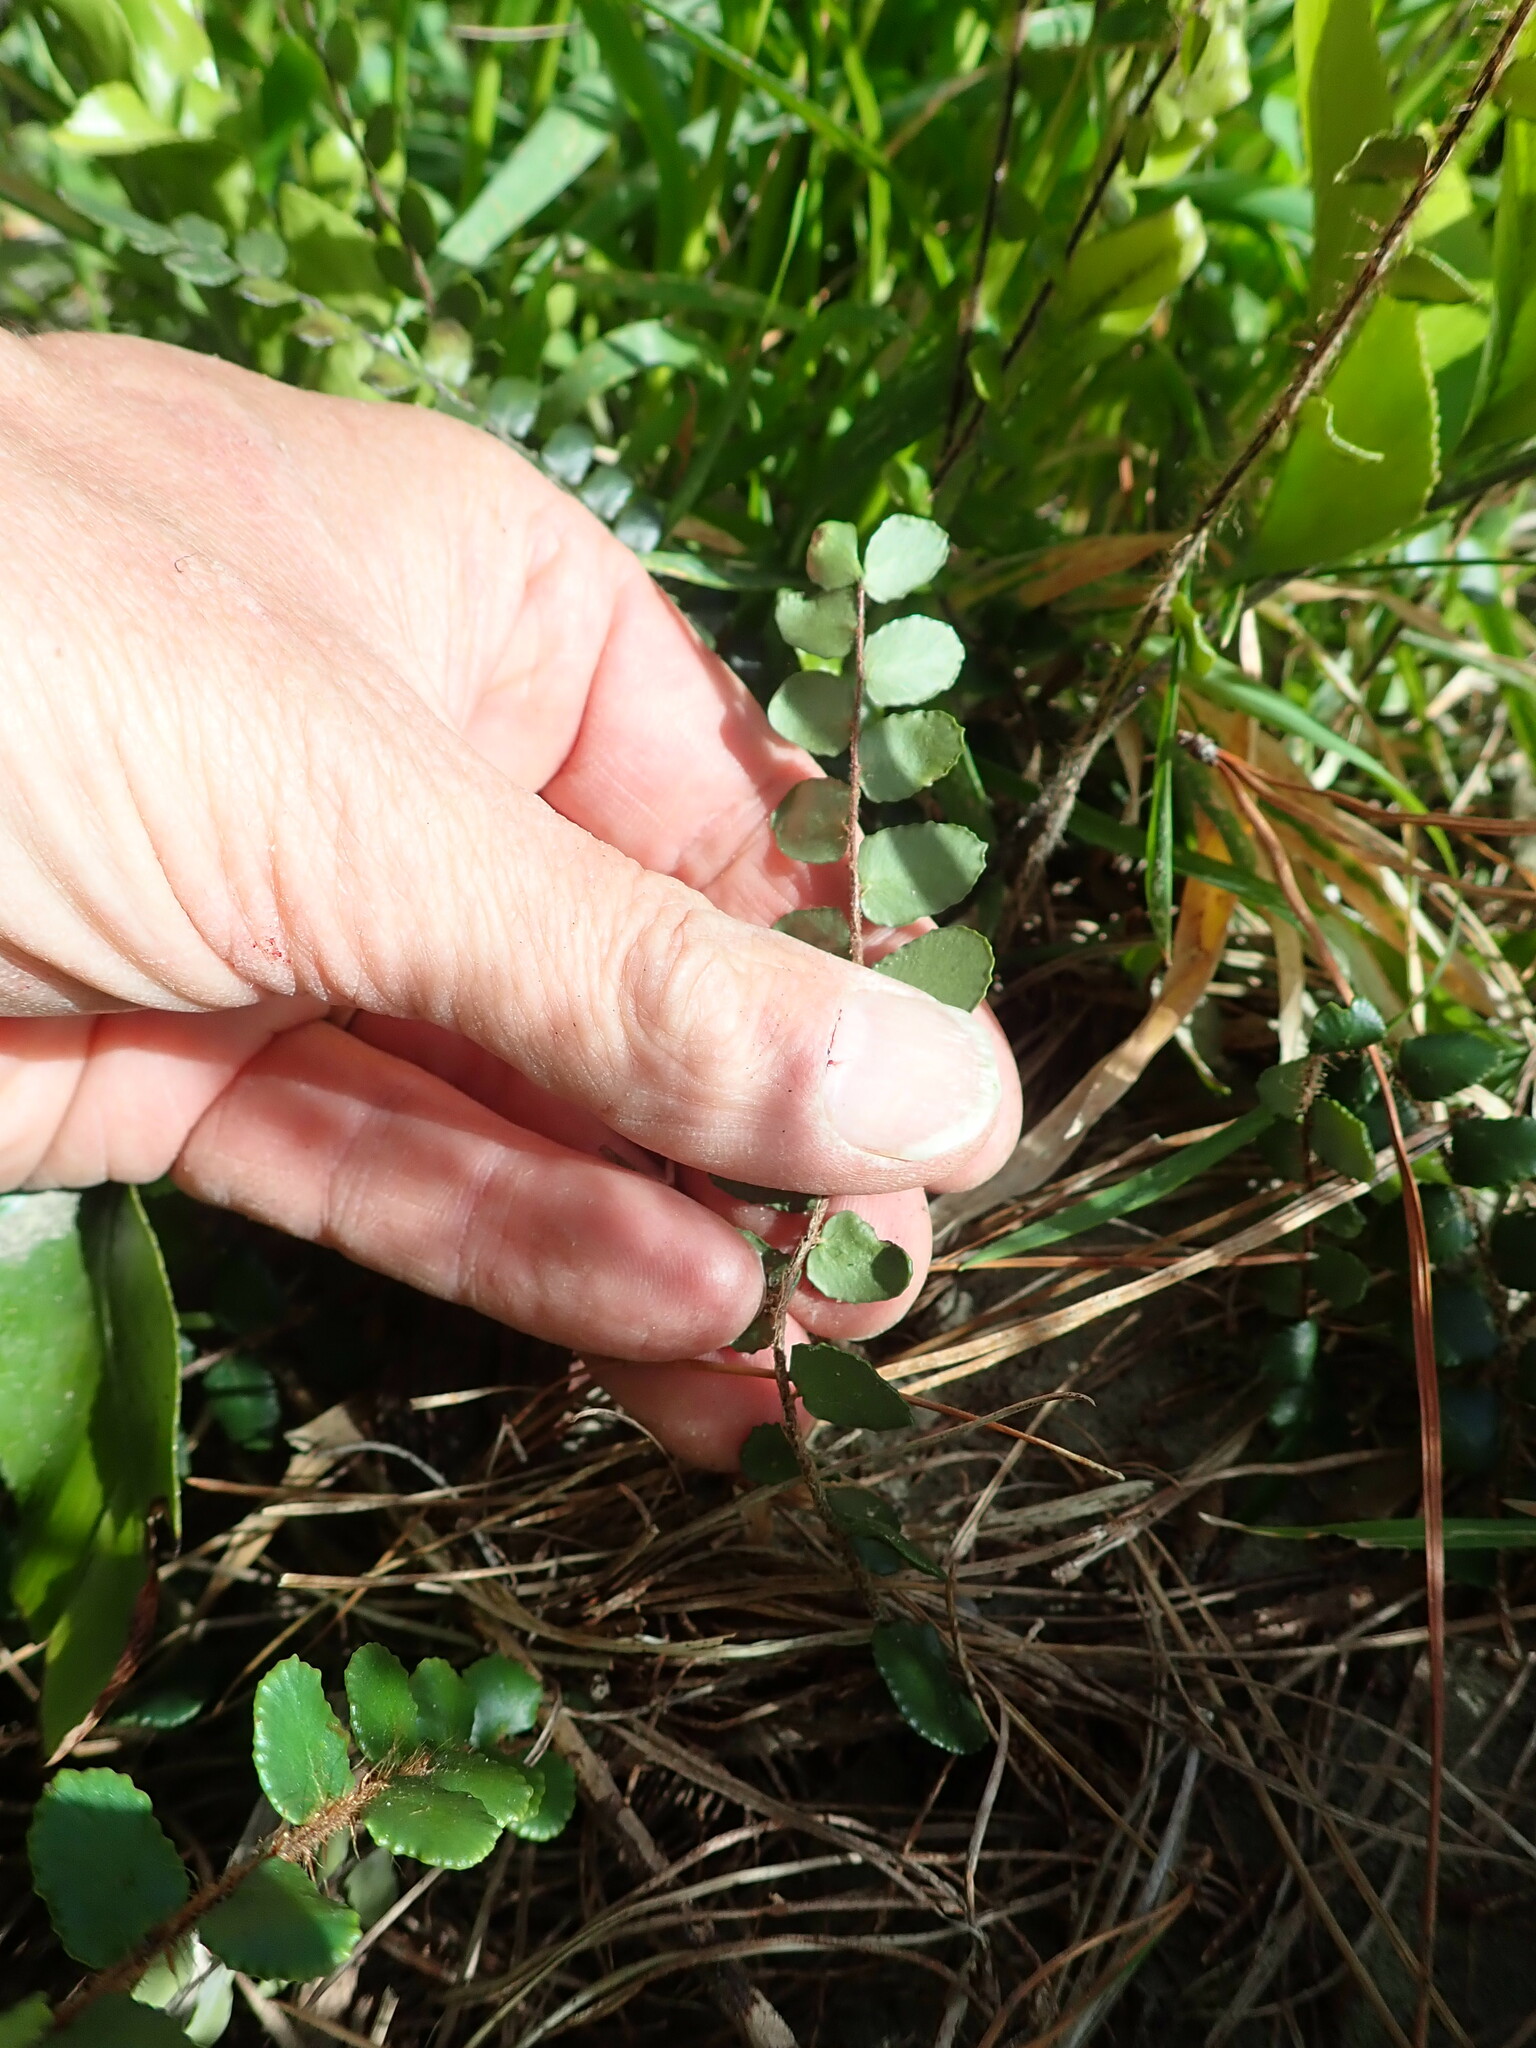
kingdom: Plantae
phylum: Tracheophyta
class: Polypodiopsida
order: Polypodiales
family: Pteridaceae
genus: Pellaea
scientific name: Pellaea rotundifolia
